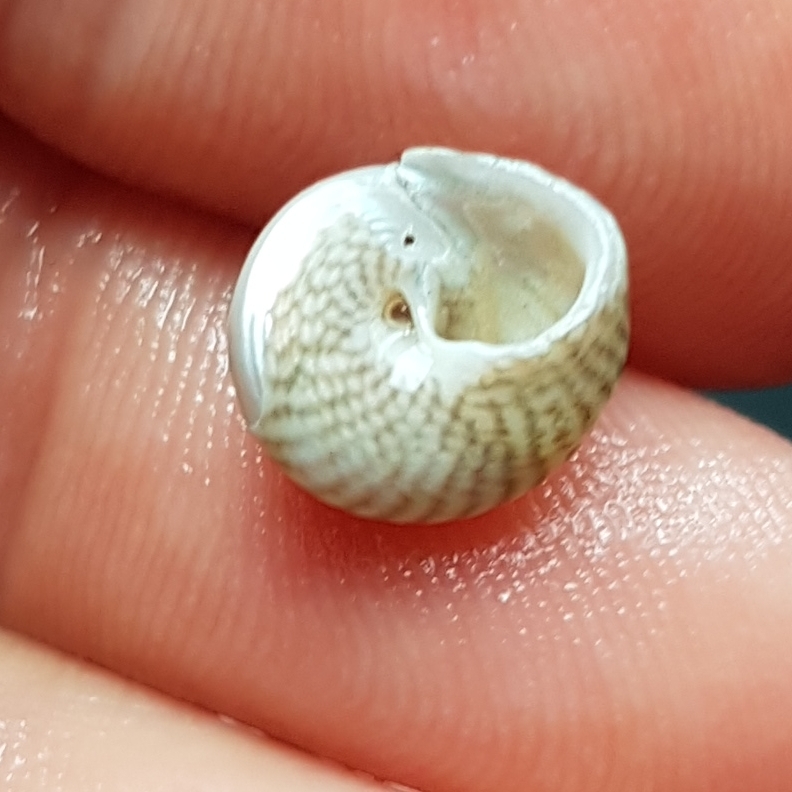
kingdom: Animalia
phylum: Mollusca
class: Gastropoda
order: Trochida
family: Trochidae
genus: Steromphala
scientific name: Steromphala cineraria
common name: Grey top shell
